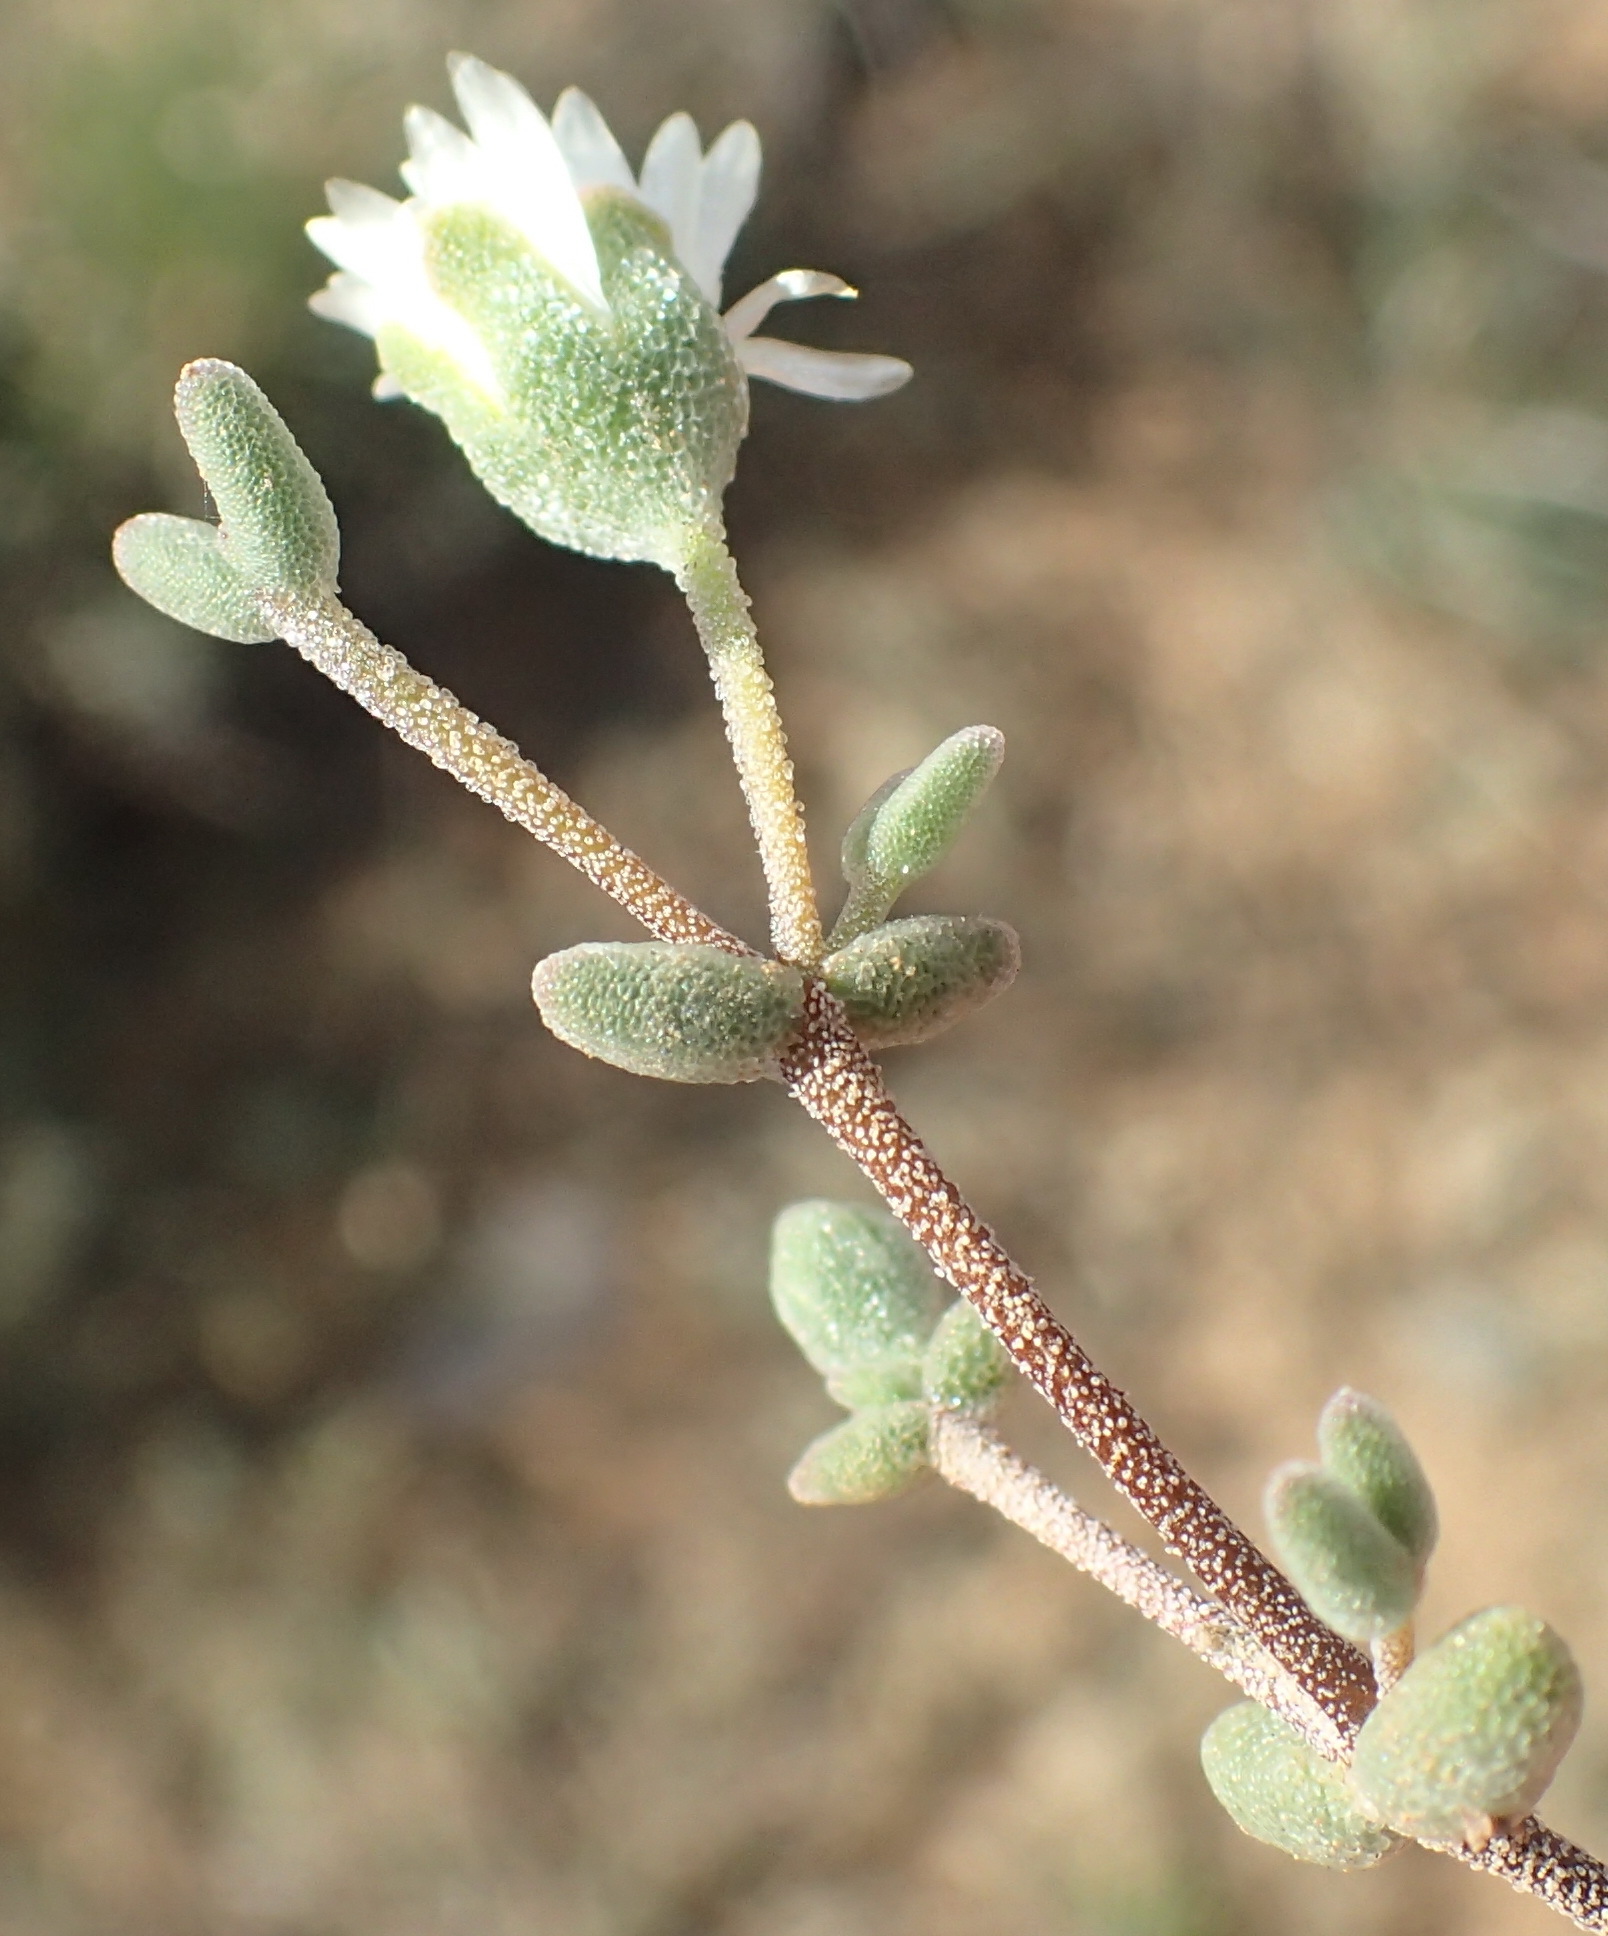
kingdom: Plantae
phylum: Tracheophyta
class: Magnoliopsida
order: Caryophyllales
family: Aizoaceae
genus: Drosanthemum
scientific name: Drosanthemum karrooense
